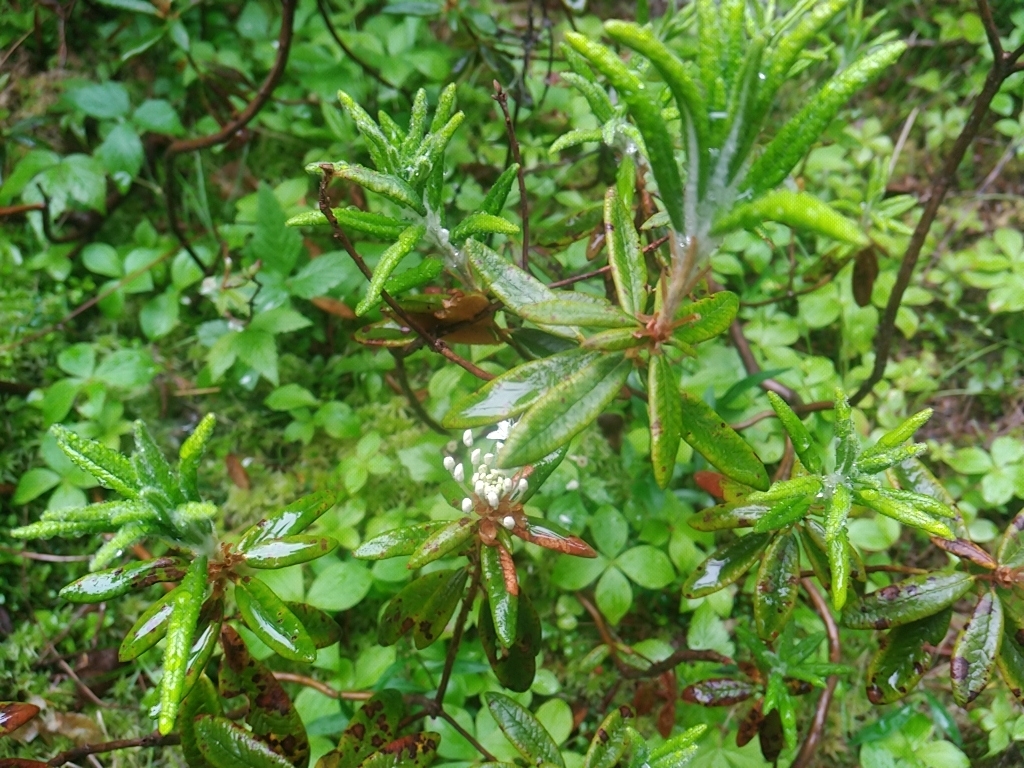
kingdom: Plantae
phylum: Tracheophyta
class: Magnoliopsida
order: Ericales
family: Ericaceae
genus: Rhododendron
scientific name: Rhododendron groenlandicum
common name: Bog labrador tea
